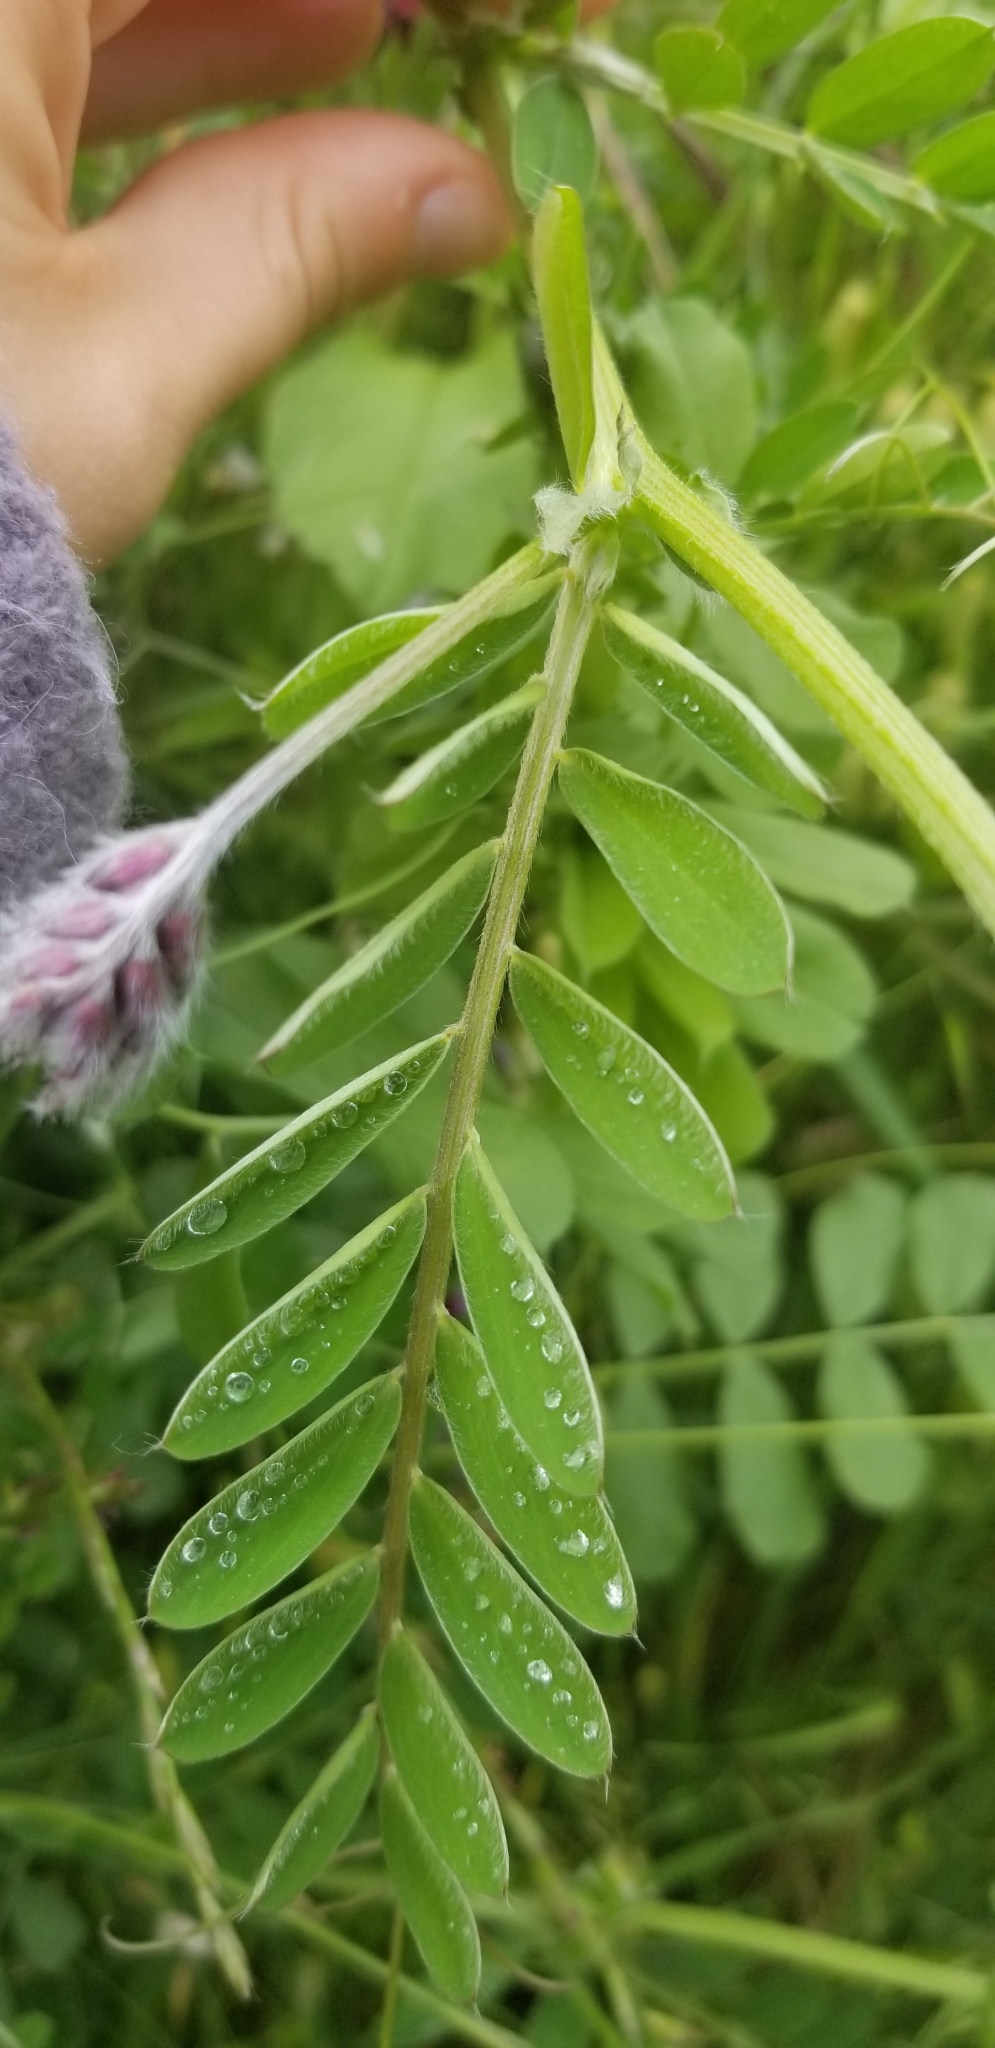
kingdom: Plantae
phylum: Tracheophyta
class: Magnoliopsida
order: Fabales
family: Fabaceae
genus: Vicia
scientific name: Vicia benghalensis
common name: Purple vetch
